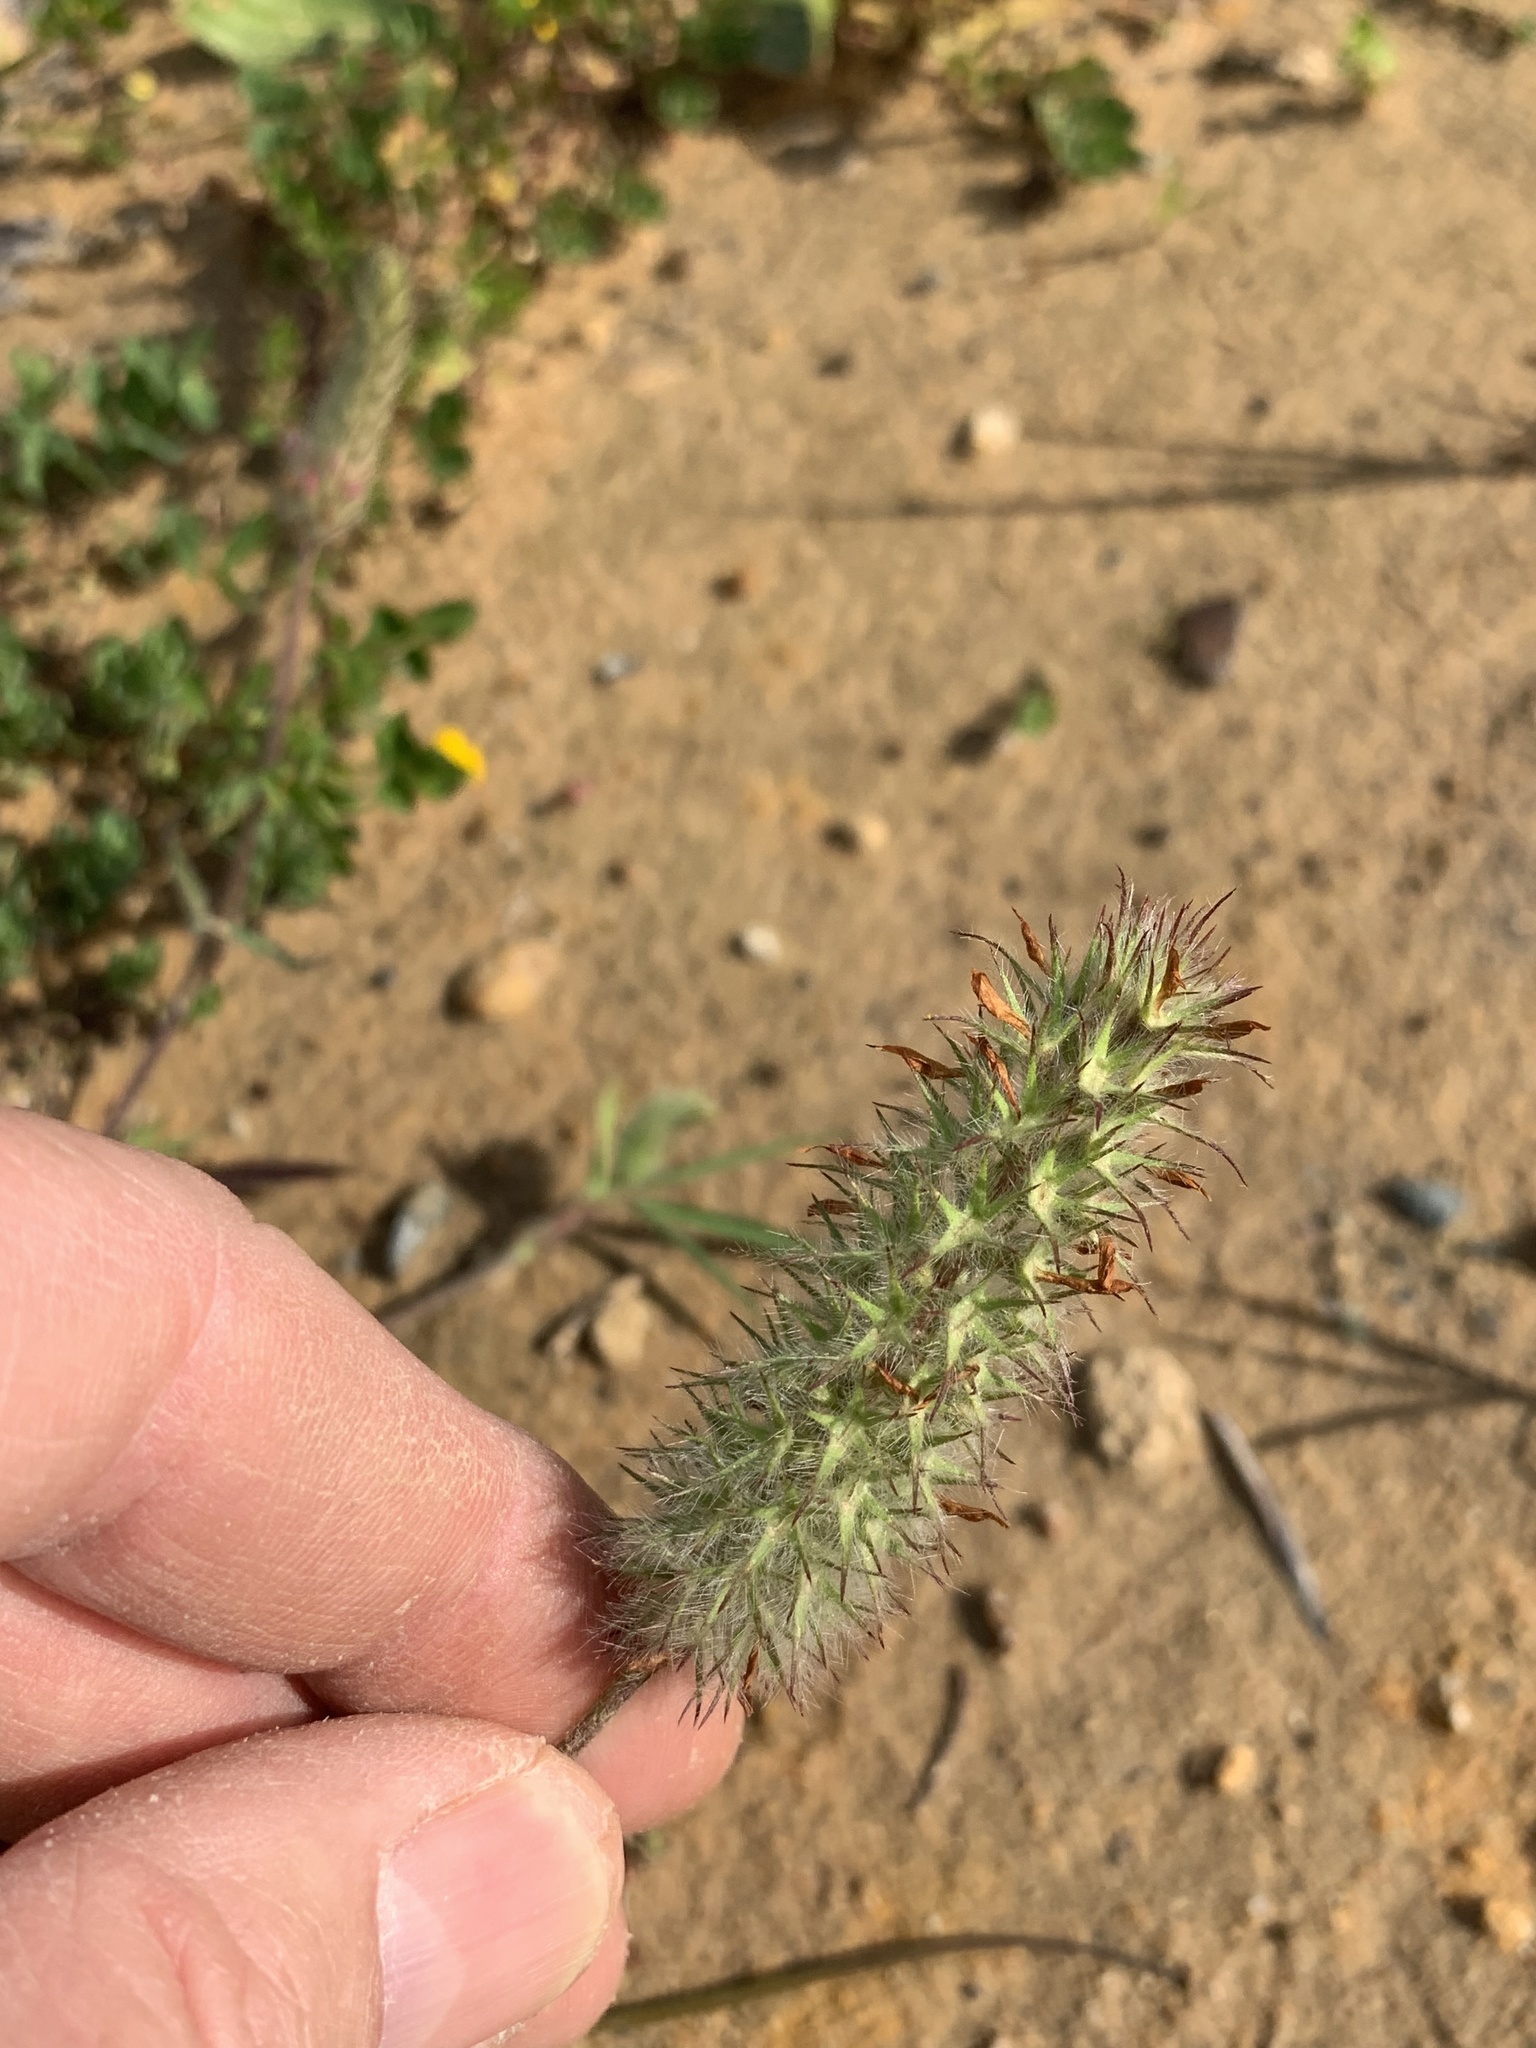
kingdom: Plantae
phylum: Tracheophyta
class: Magnoliopsida
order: Fabales
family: Fabaceae
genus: Trifolium
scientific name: Trifolium angustifolium
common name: Narrow clover
